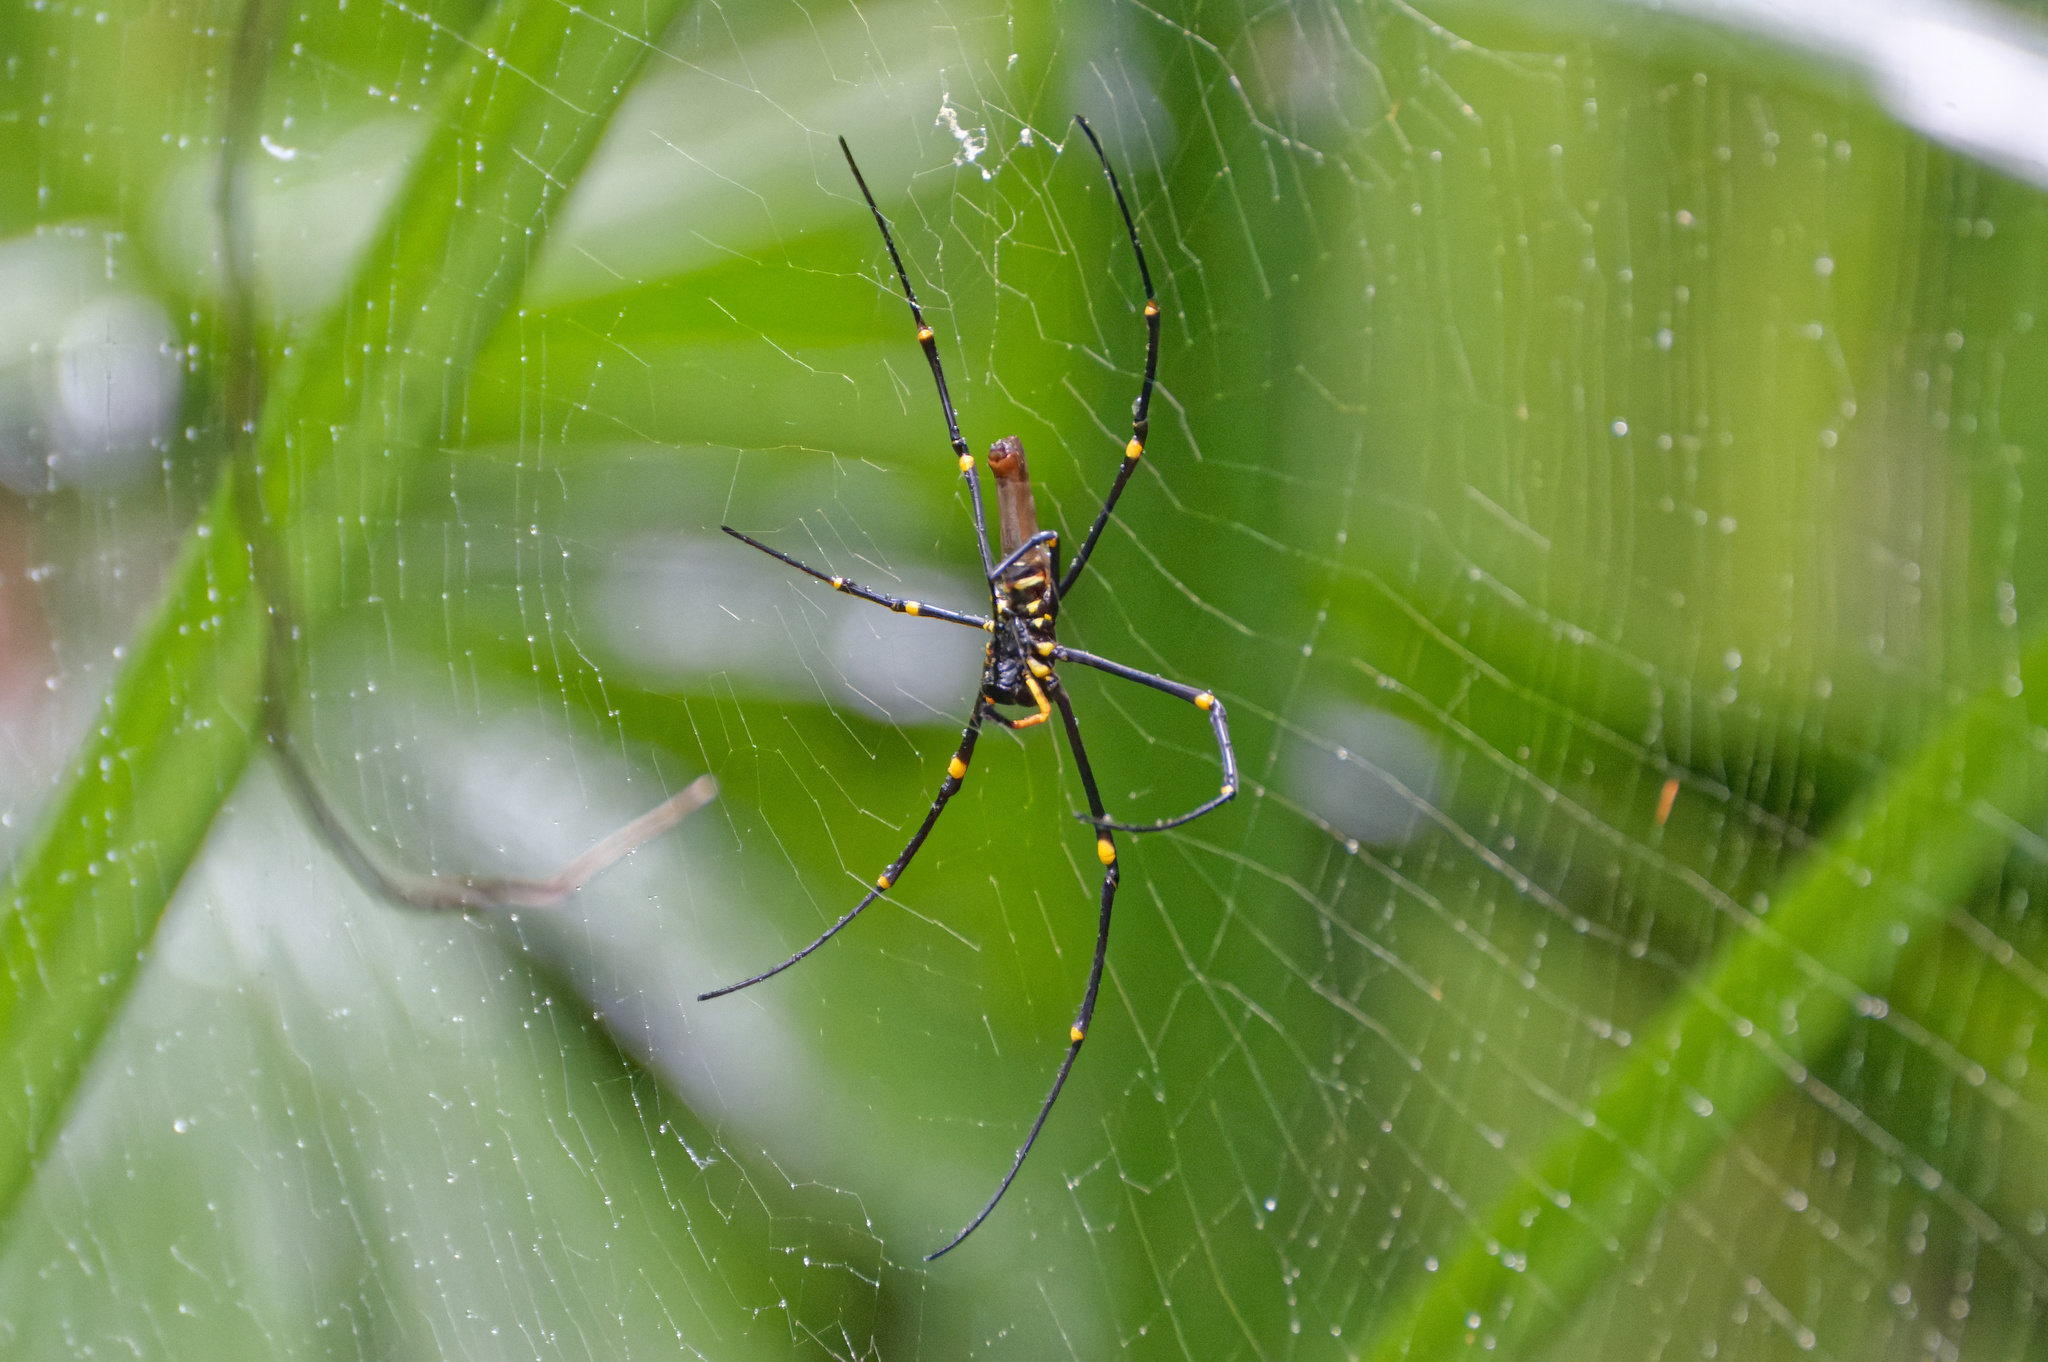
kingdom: Animalia
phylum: Arthropoda
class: Arachnida
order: Araneae
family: Araneidae
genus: Nephila
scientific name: Nephila pilipes
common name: Giant golden orb weaver
